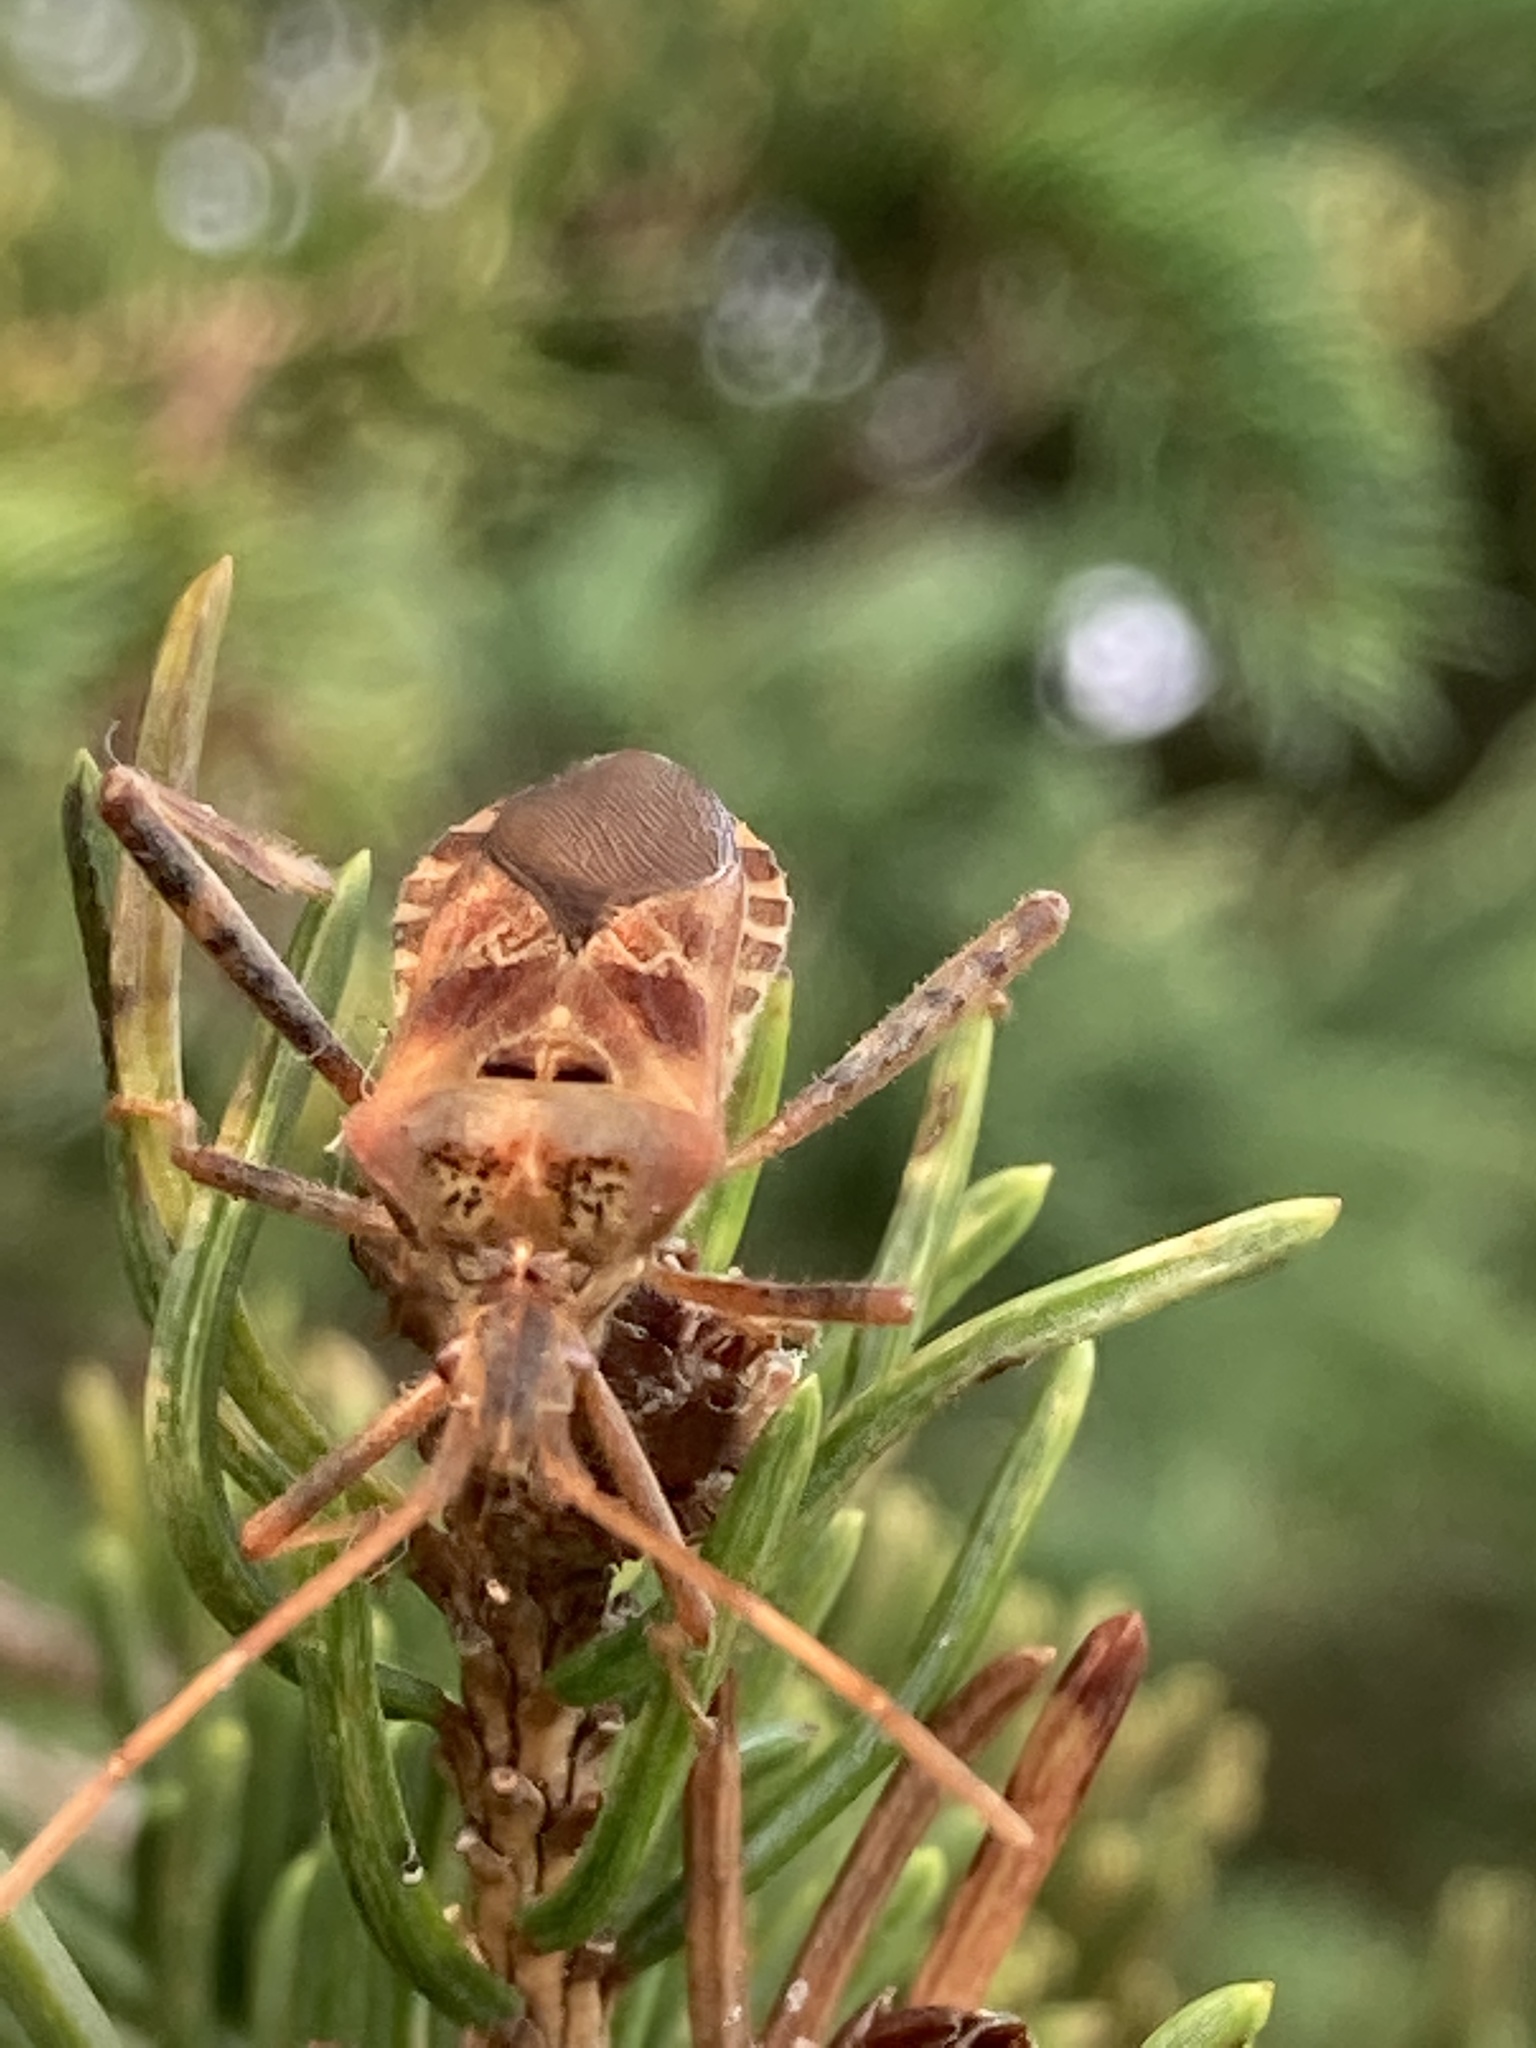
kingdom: Animalia
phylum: Arthropoda
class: Insecta
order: Hemiptera
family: Coreidae
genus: Leptoglossus
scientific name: Leptoglossus occidentalis
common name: Western conifer-seed bug
